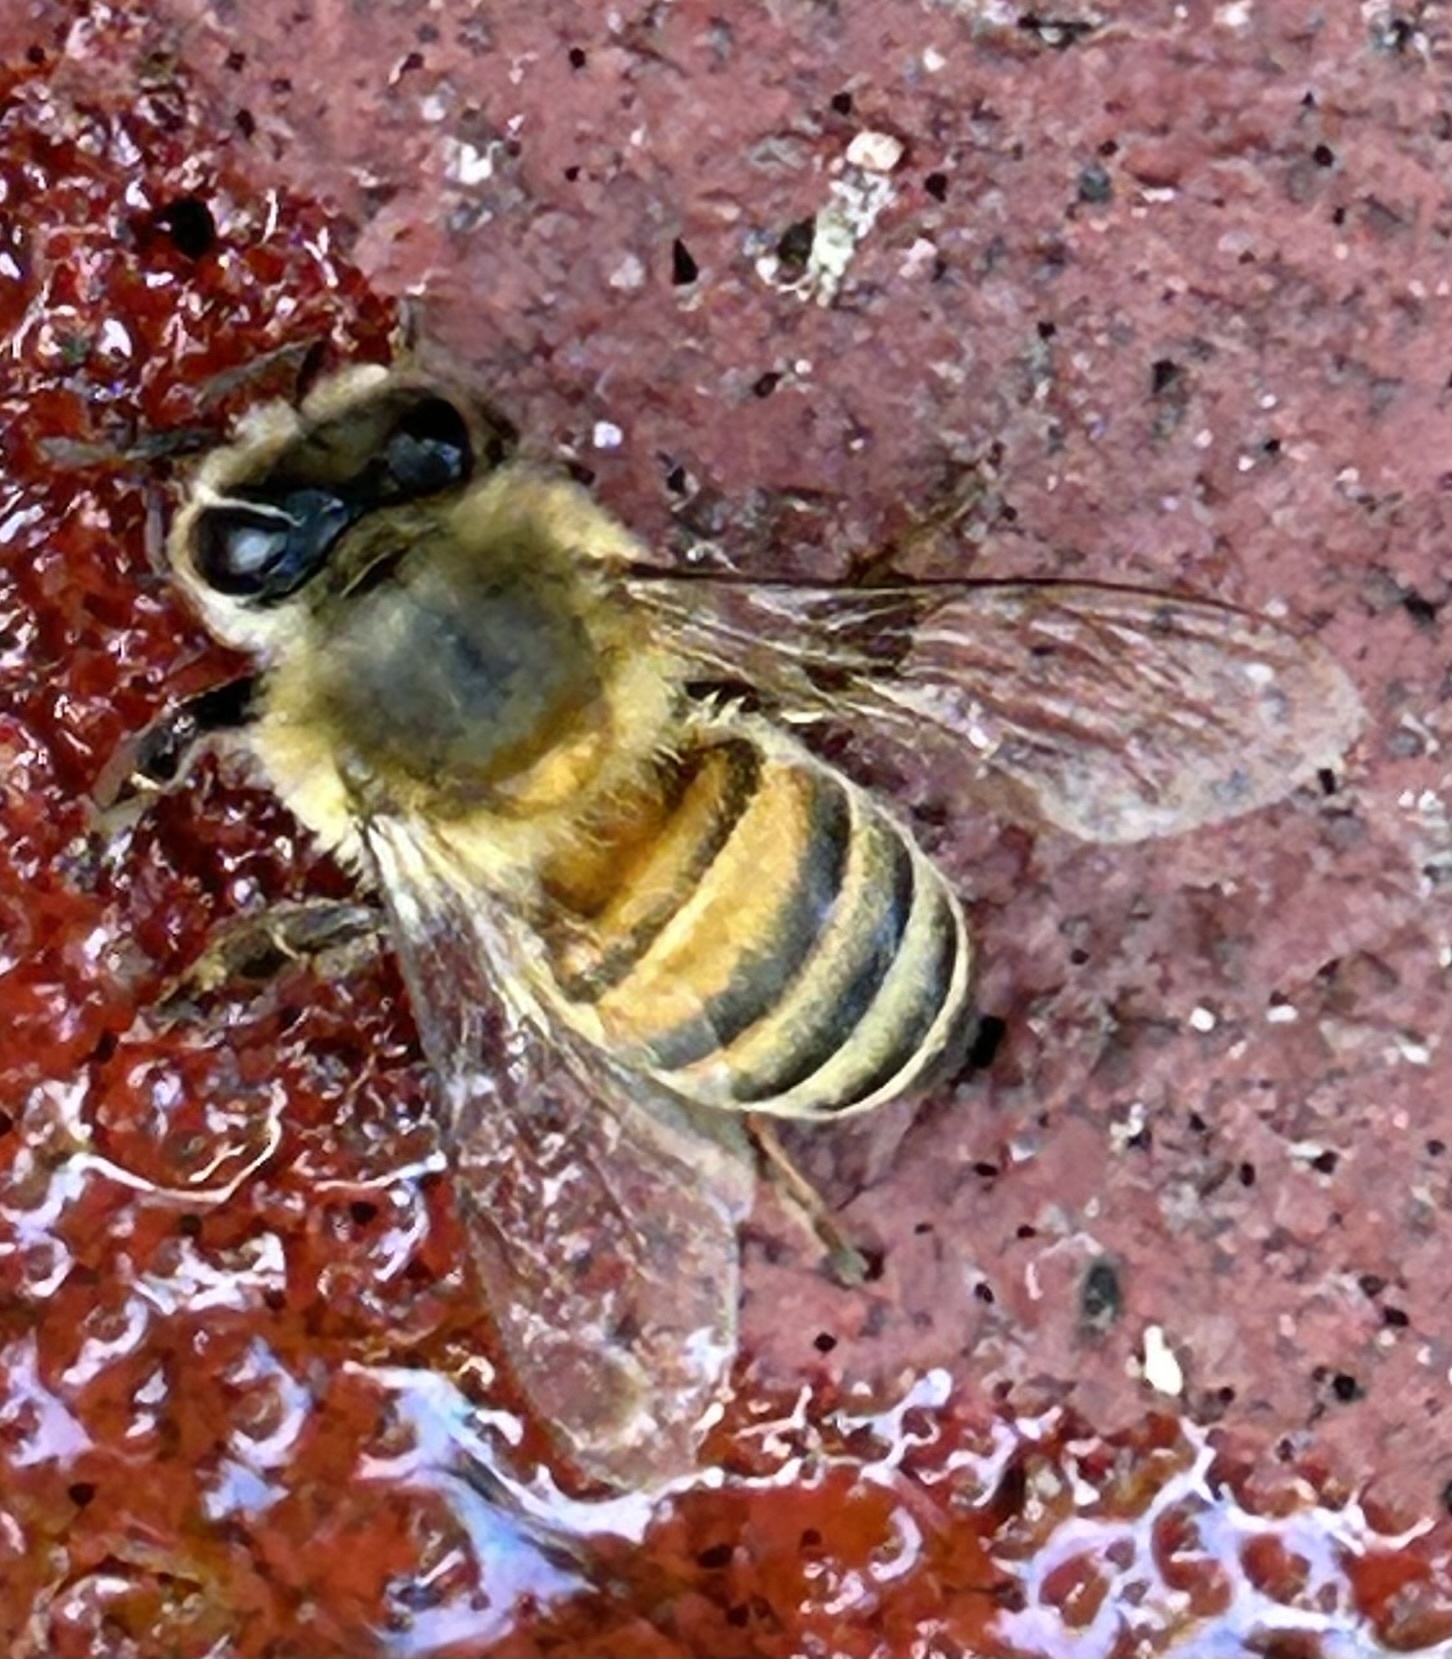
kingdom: Animalia
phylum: Arthropoda
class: Insecta
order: Hymenoptera
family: Apidae
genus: Apis
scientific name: Apis mellifera
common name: Honey bee
